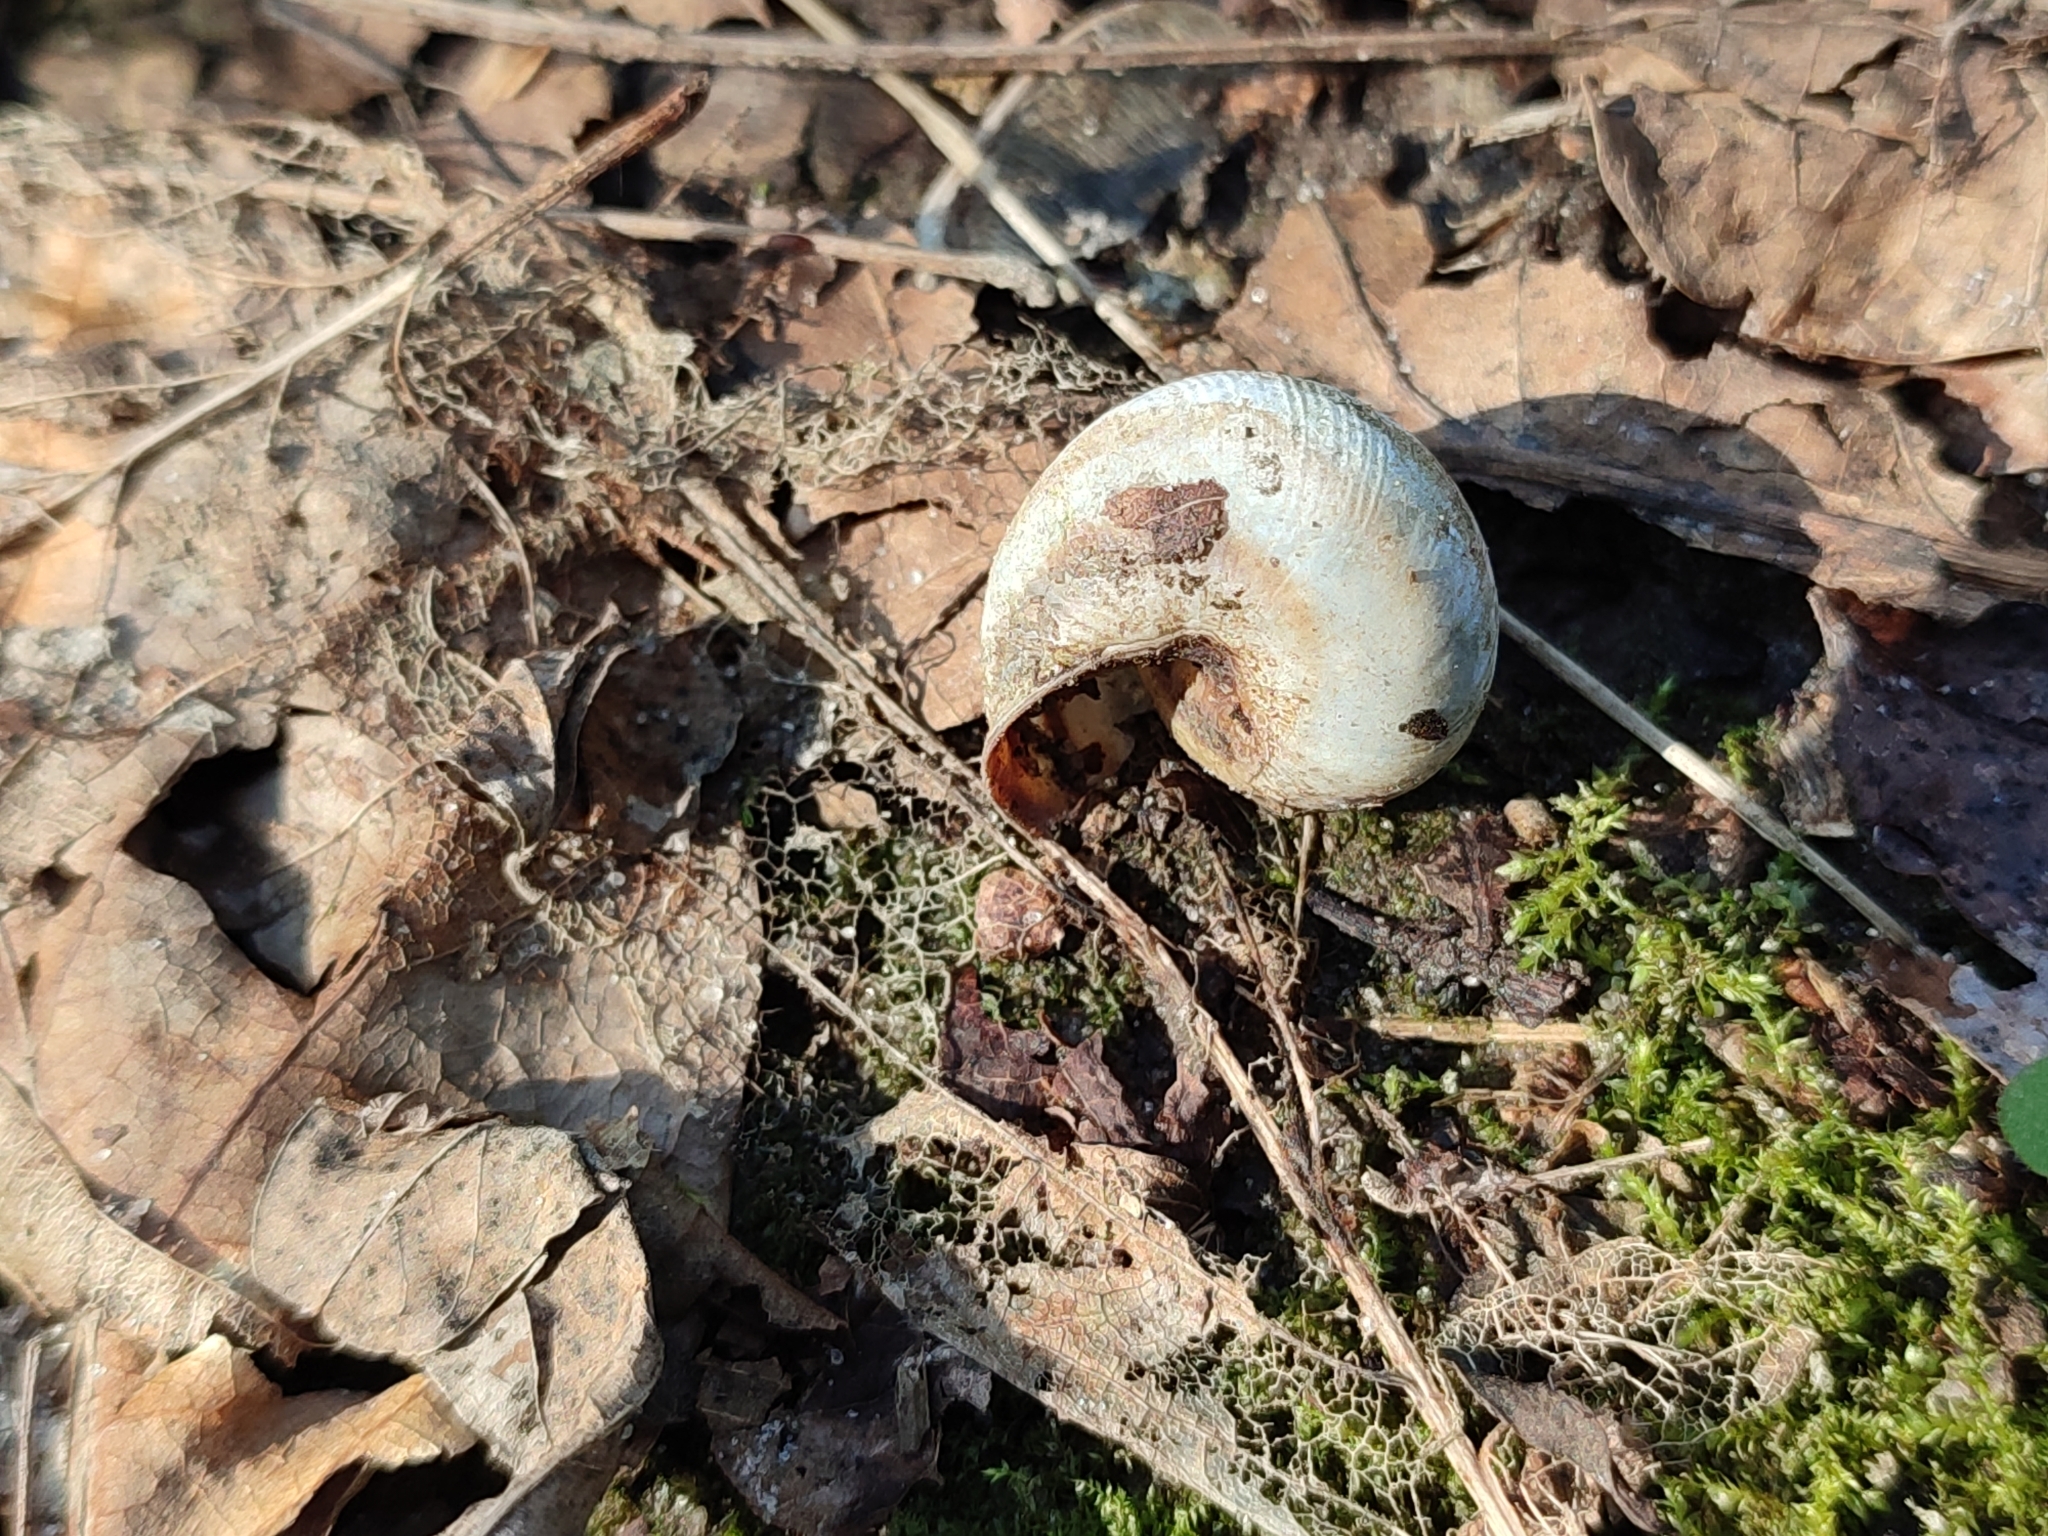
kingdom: Animalia
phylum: Mollusca
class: Gastropoda
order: Stylommatophora
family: Helicidae
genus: Caucasotachea
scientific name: Caucasotachea vindobonensis
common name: European helicid land snail
